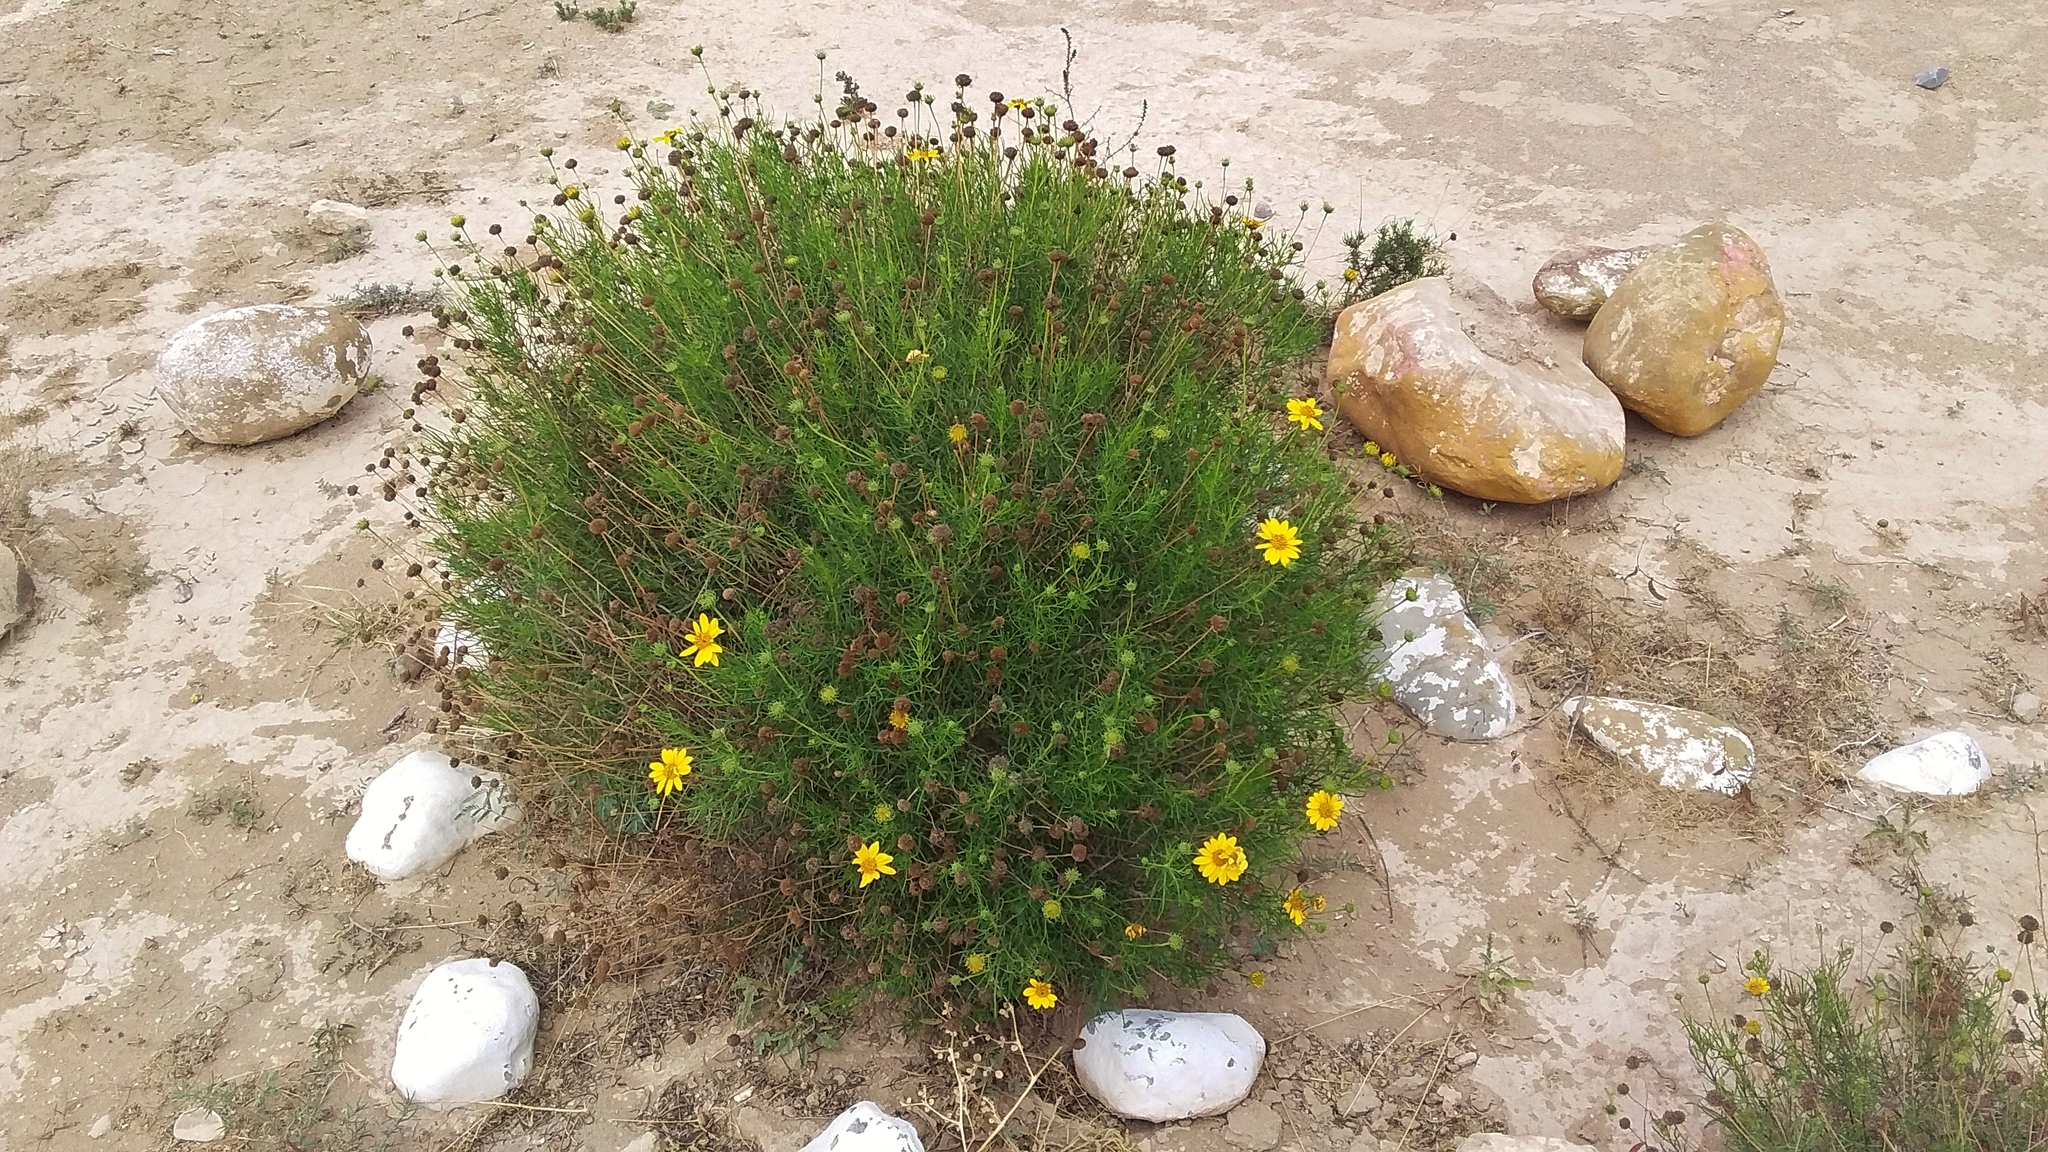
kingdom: Plantae
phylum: Tracheophyta
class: Magnoliopsida
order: Asterales
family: Asteraceae
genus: Sidneya
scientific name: Sidneya tenuifolia
